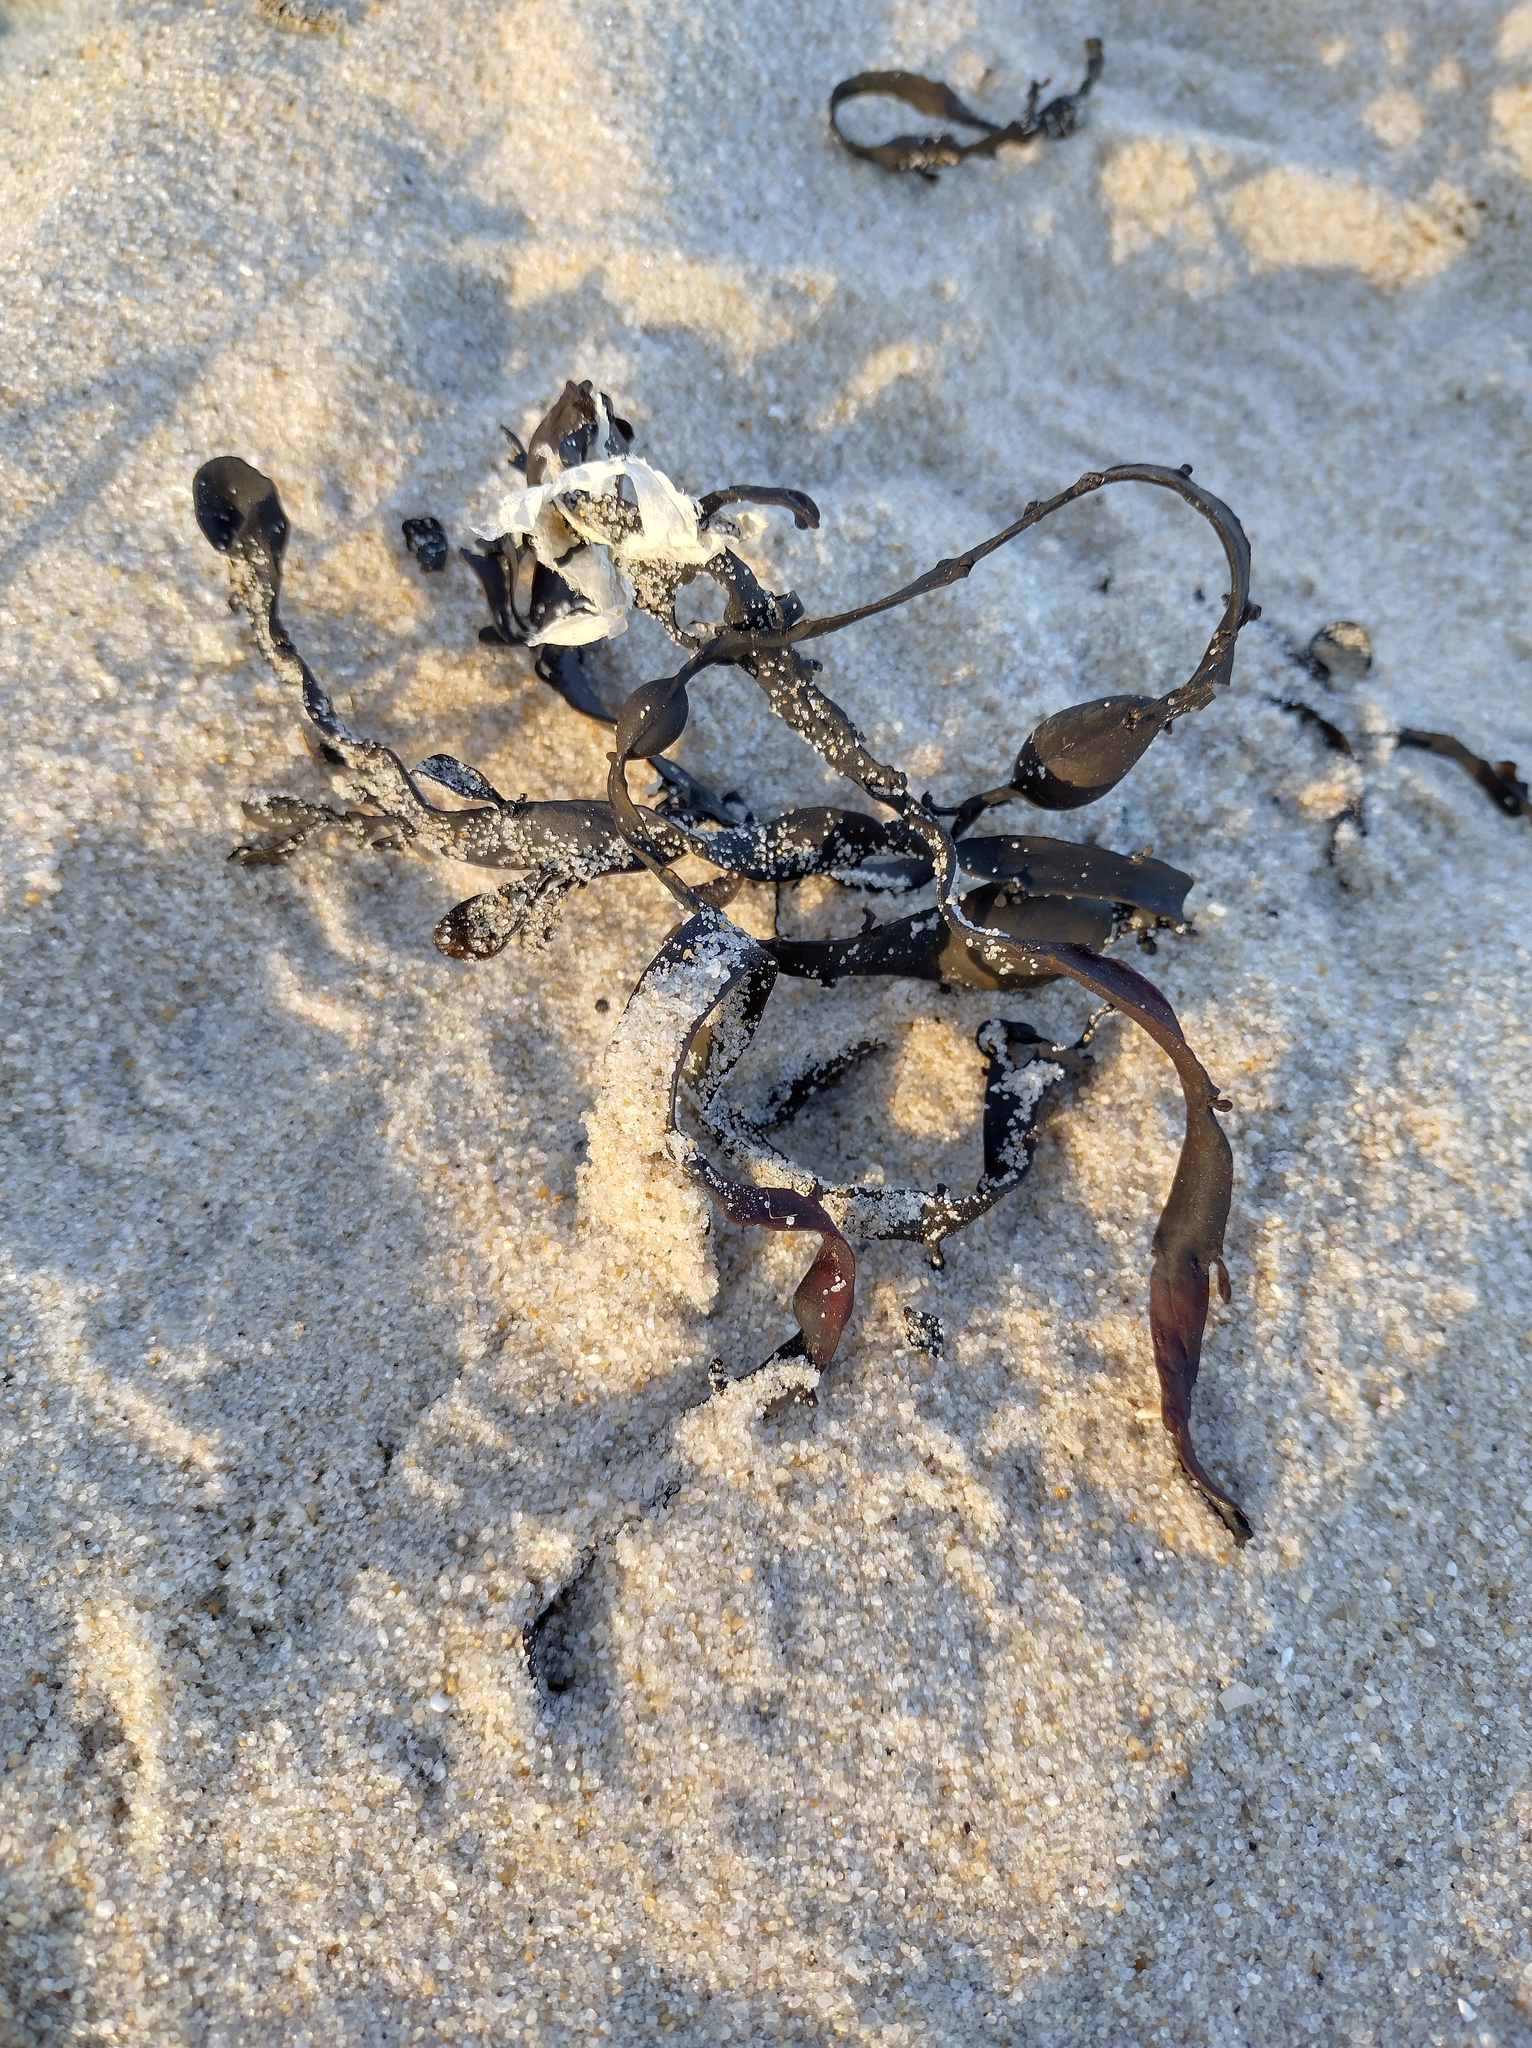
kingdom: Chromista
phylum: Ochrophyta
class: Phaeophyceae
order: Fucales
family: Fucaceae
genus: Ascophyllum
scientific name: Ascophyllum nodosum
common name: Knotted wrack
